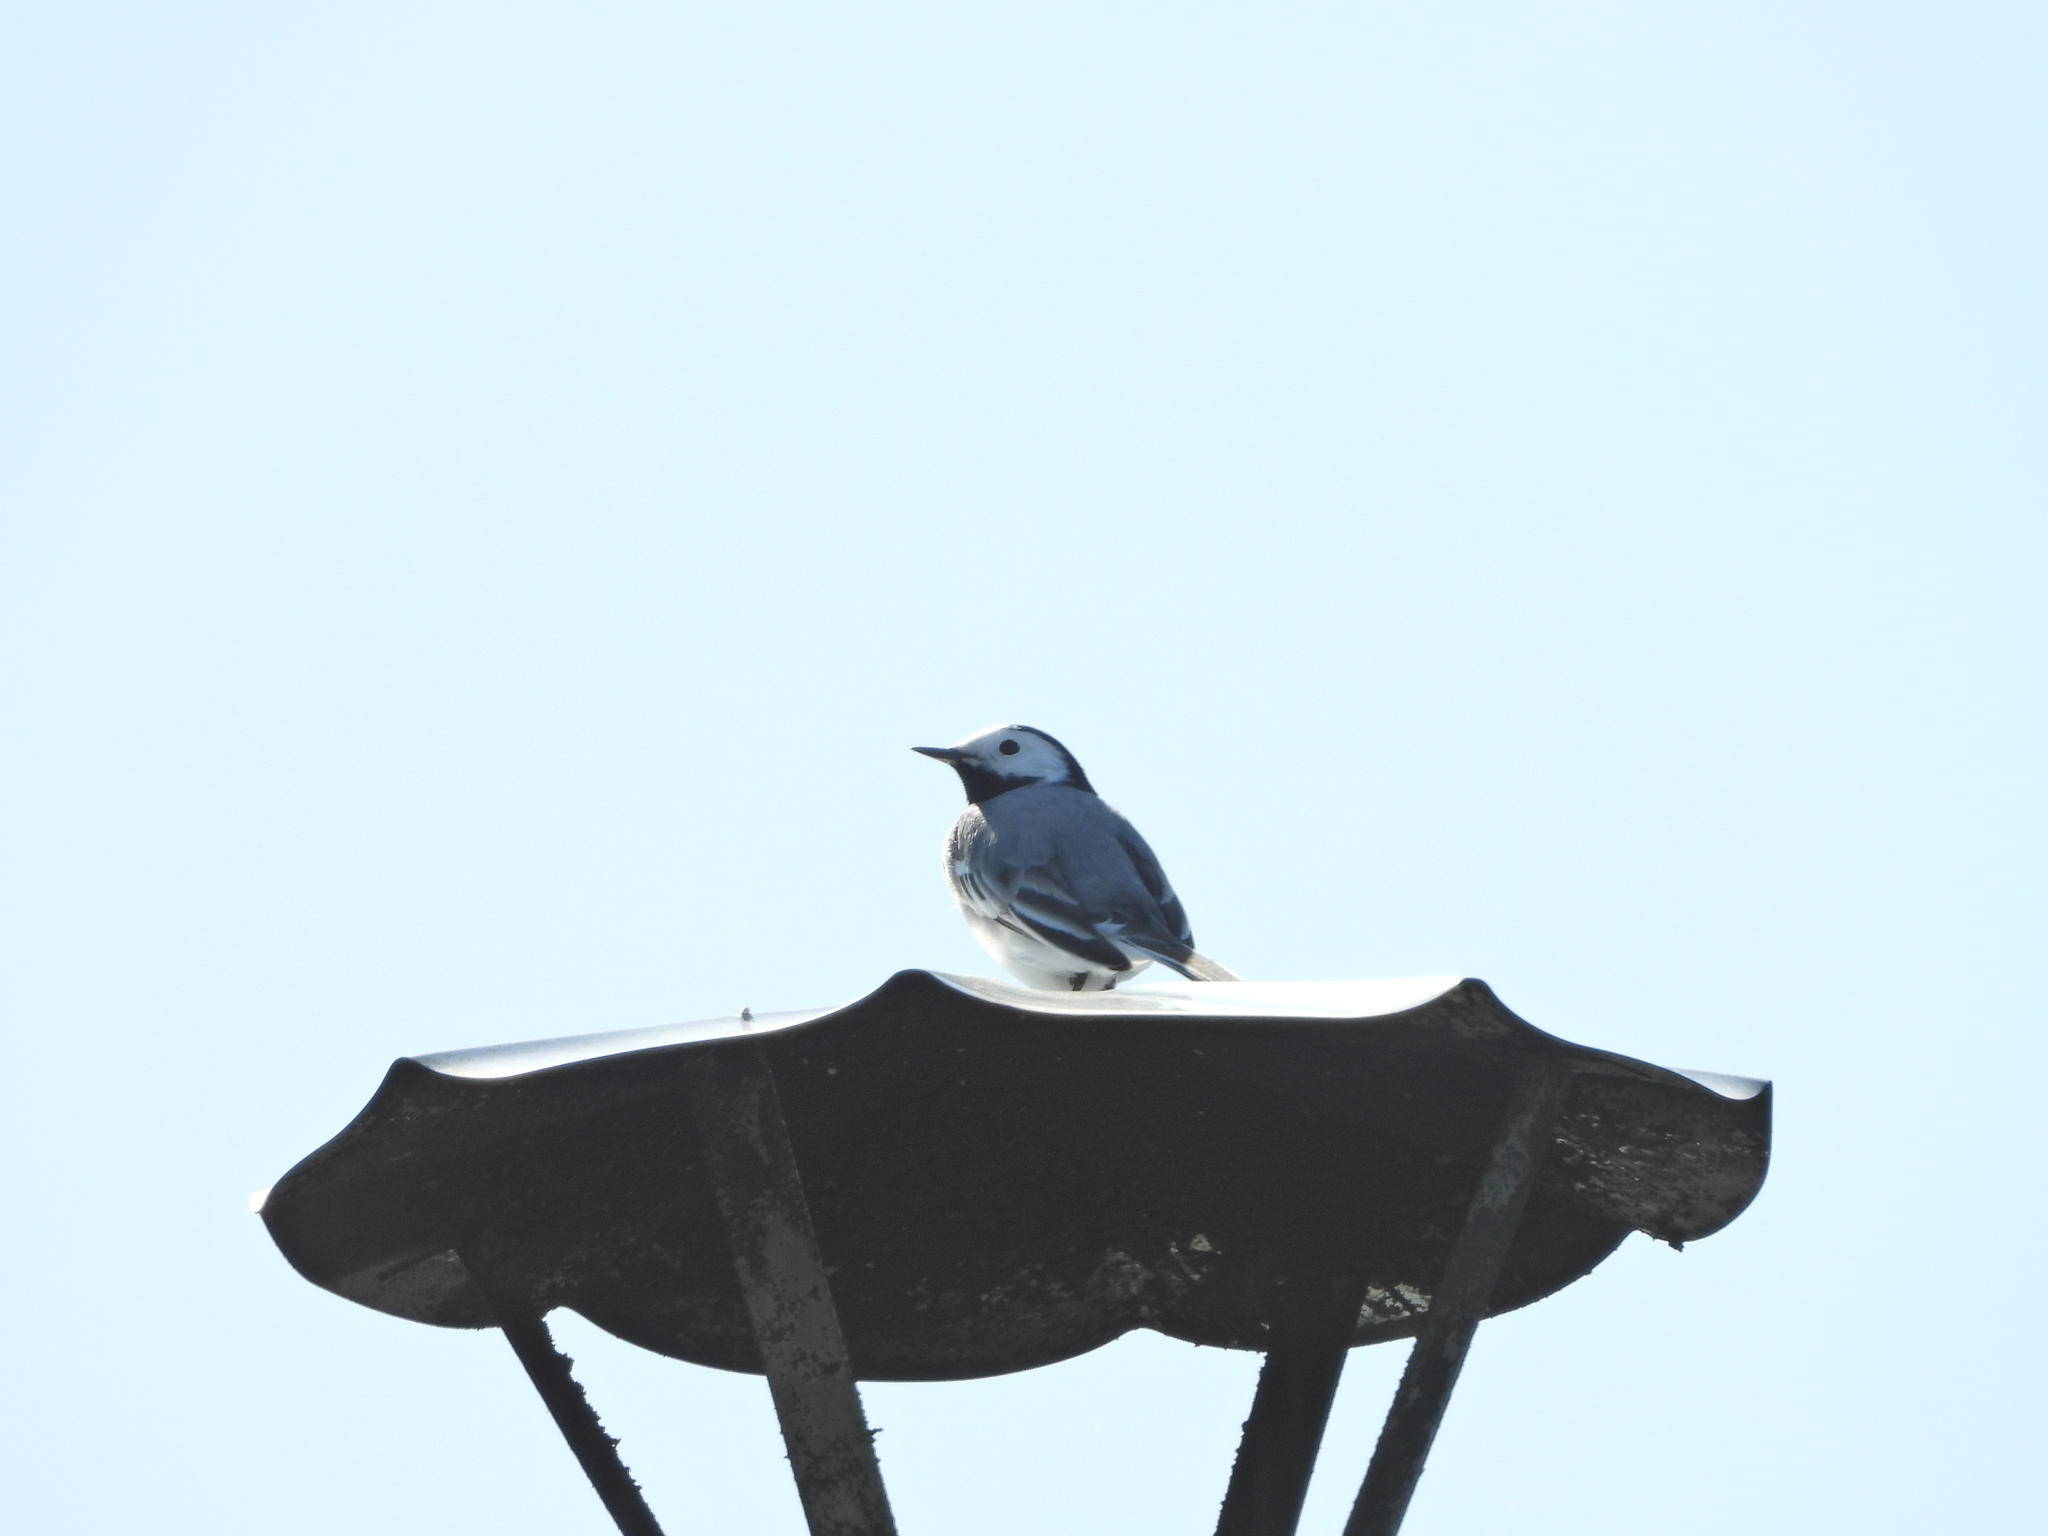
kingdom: Animalia
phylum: Chordata
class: Aves
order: Passeriformes
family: Motacillidae
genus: Motacilla
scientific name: Motacilla alba
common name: White wagtail
